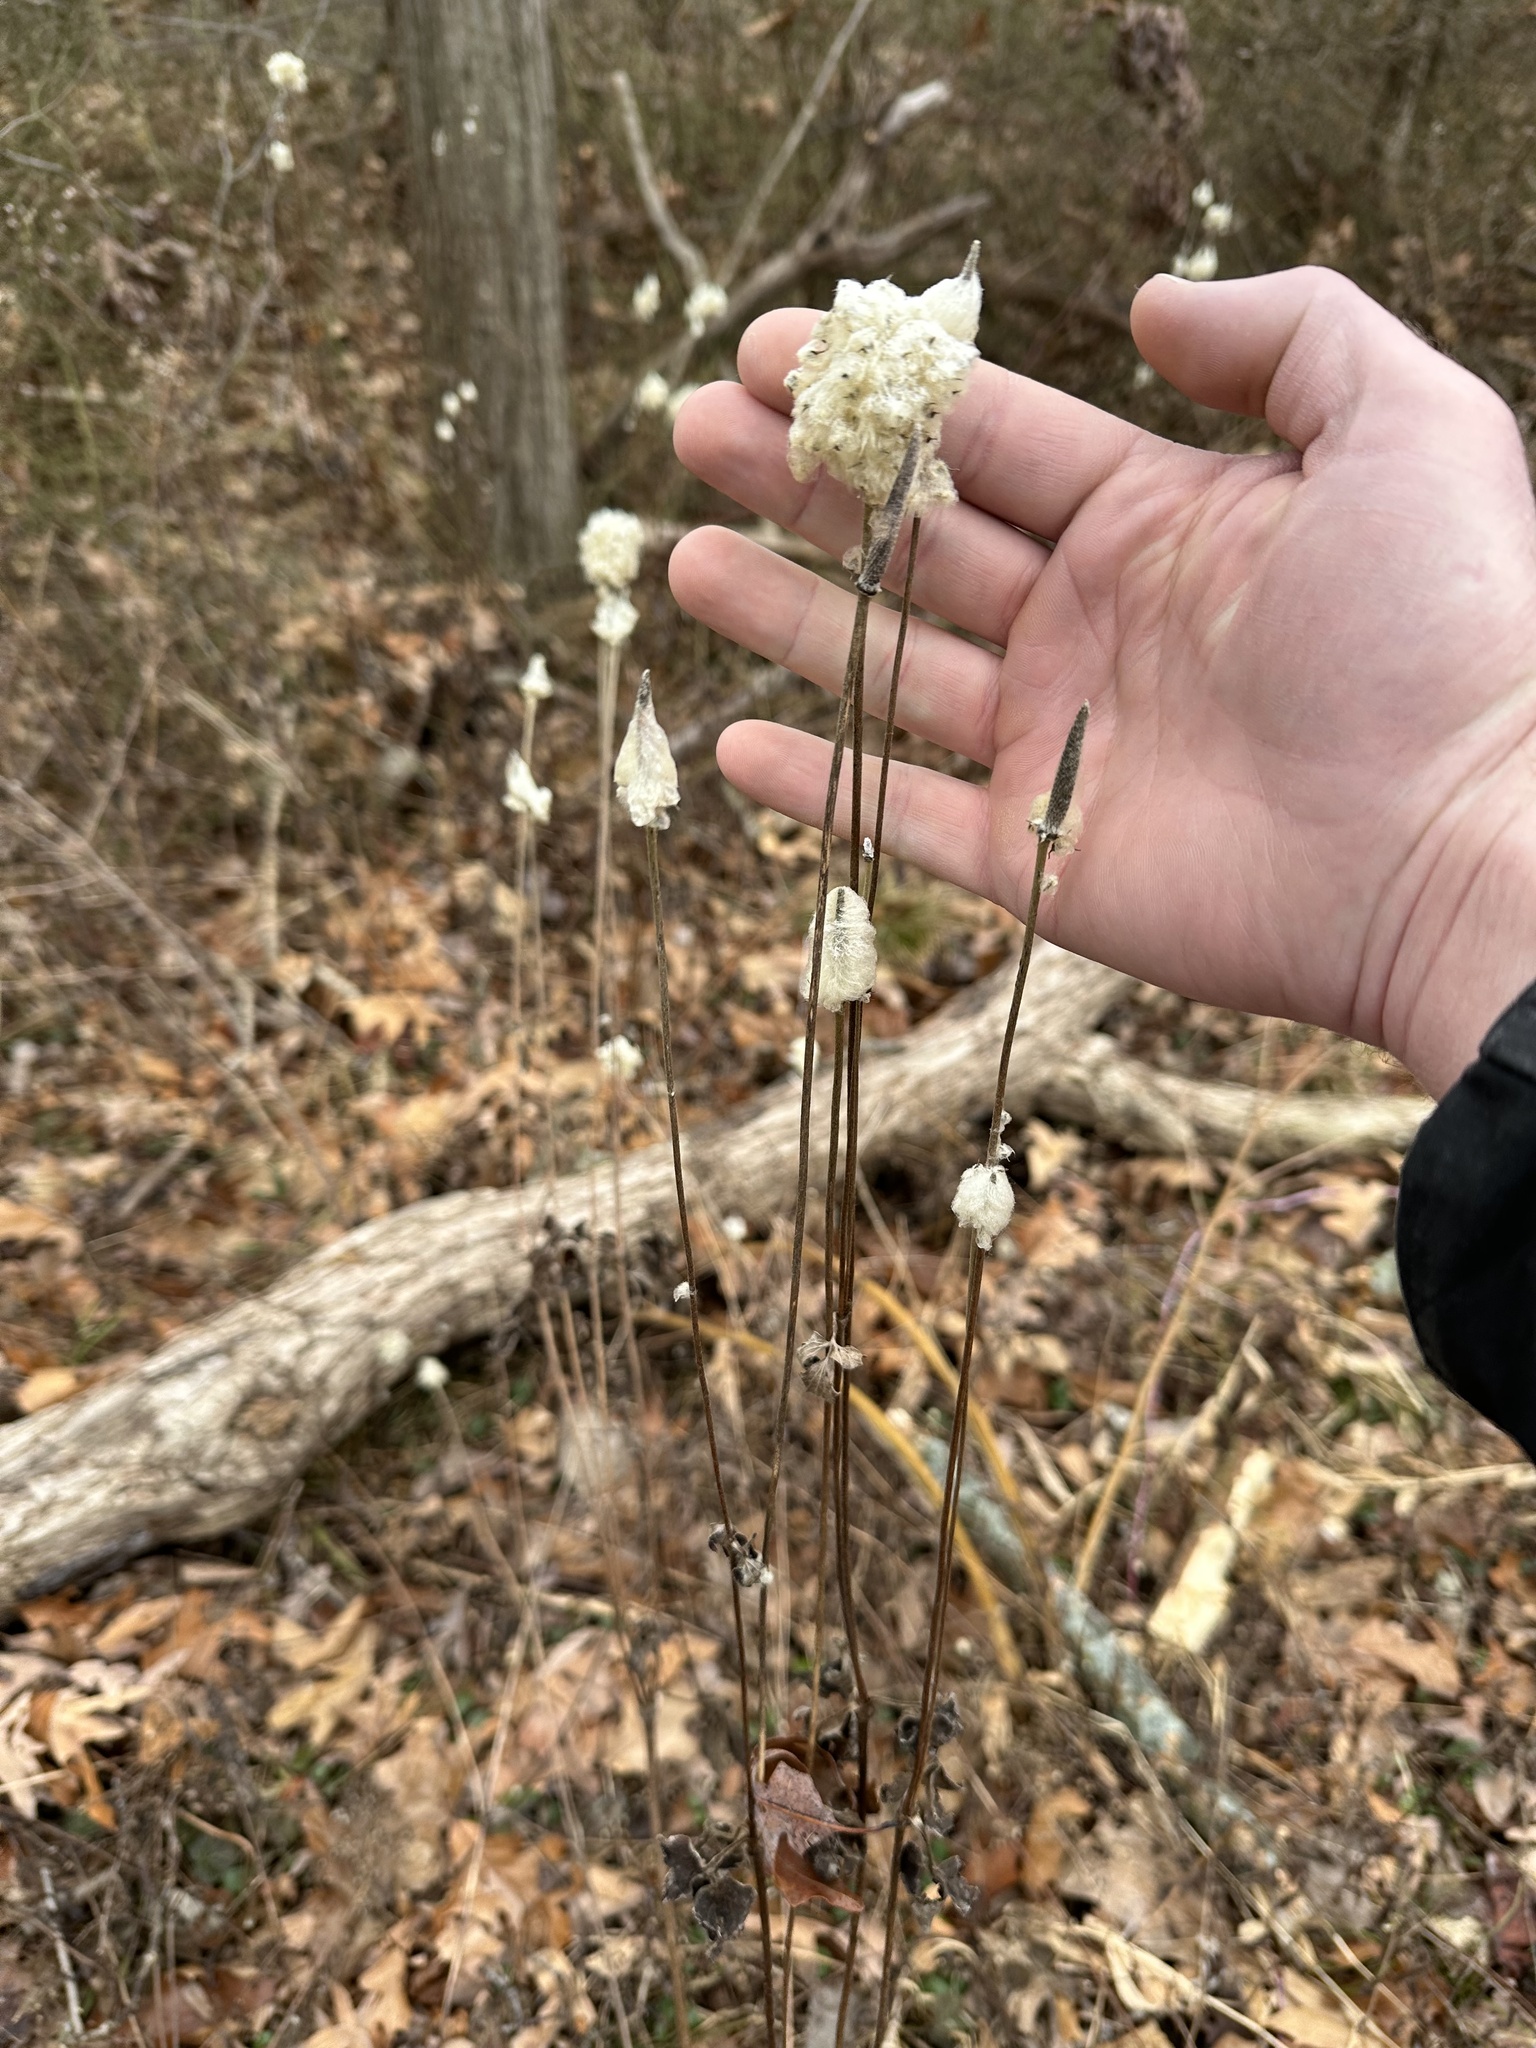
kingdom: Plantae
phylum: Tracheophyta
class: Magnoliopsida
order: Ranunculales
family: Ranunculaceae
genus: Anemone
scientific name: Anemone virginiana
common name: Tall anemone
